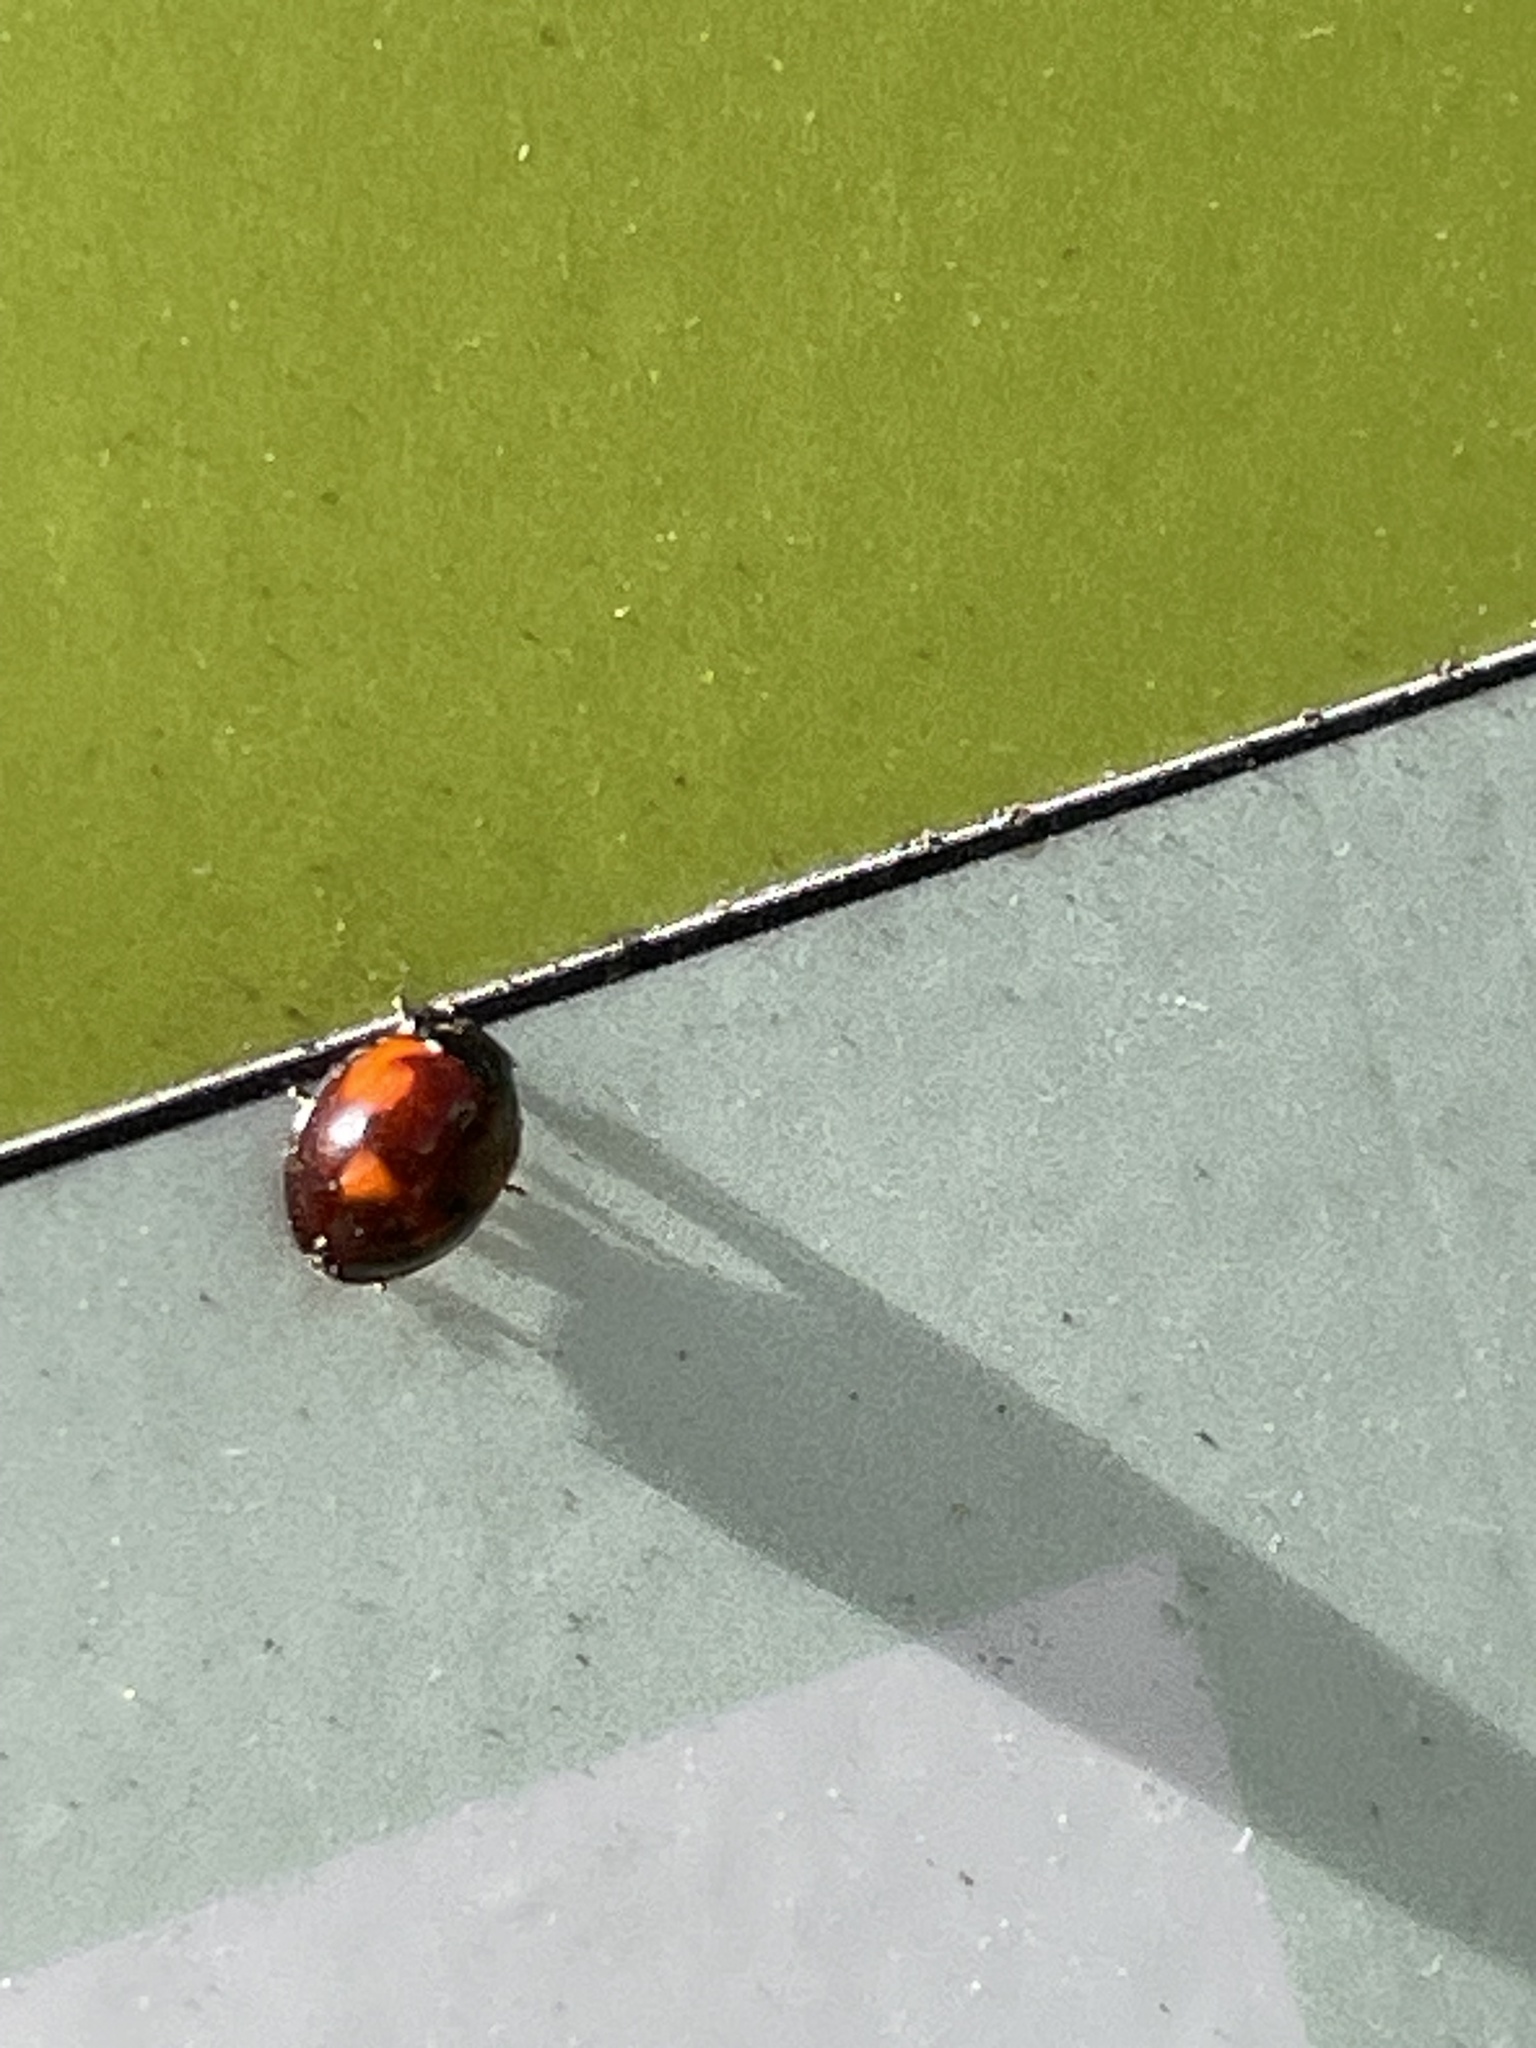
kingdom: Animalia
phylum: Arthropoda
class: Insecta
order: Coleoptera
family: Coccinellidae
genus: Brumus
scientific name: Brumus quadripustulatus
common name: Ladybird beetle
